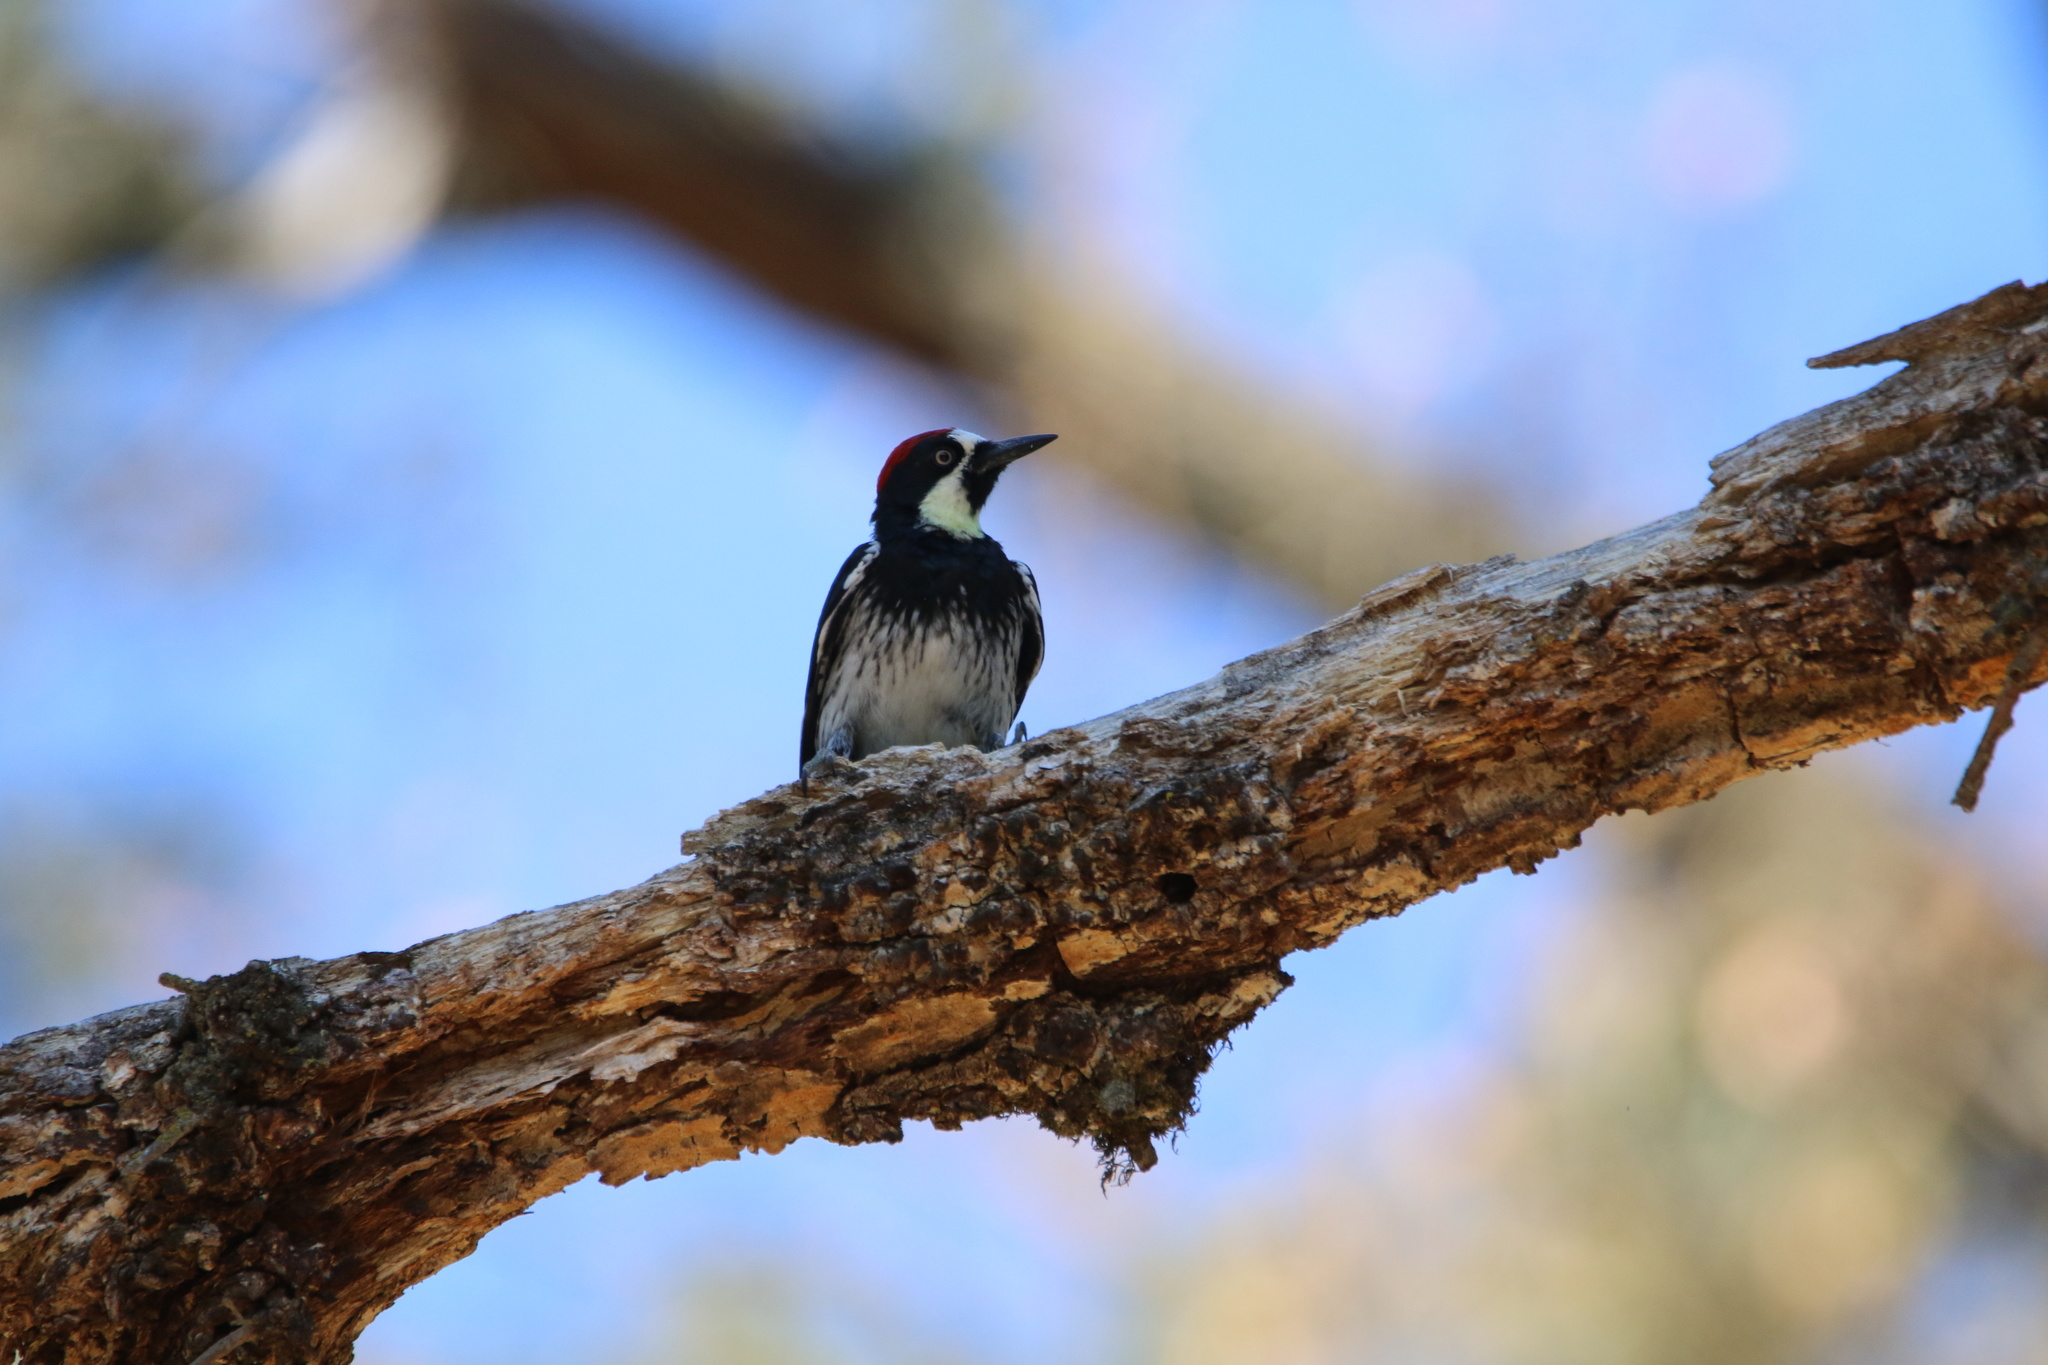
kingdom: Animalia
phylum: Chordata
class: Aves
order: Piciformes
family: Picidae
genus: Melanerpes
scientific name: Melanerpes formicivorus
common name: Acorn woodpecker
